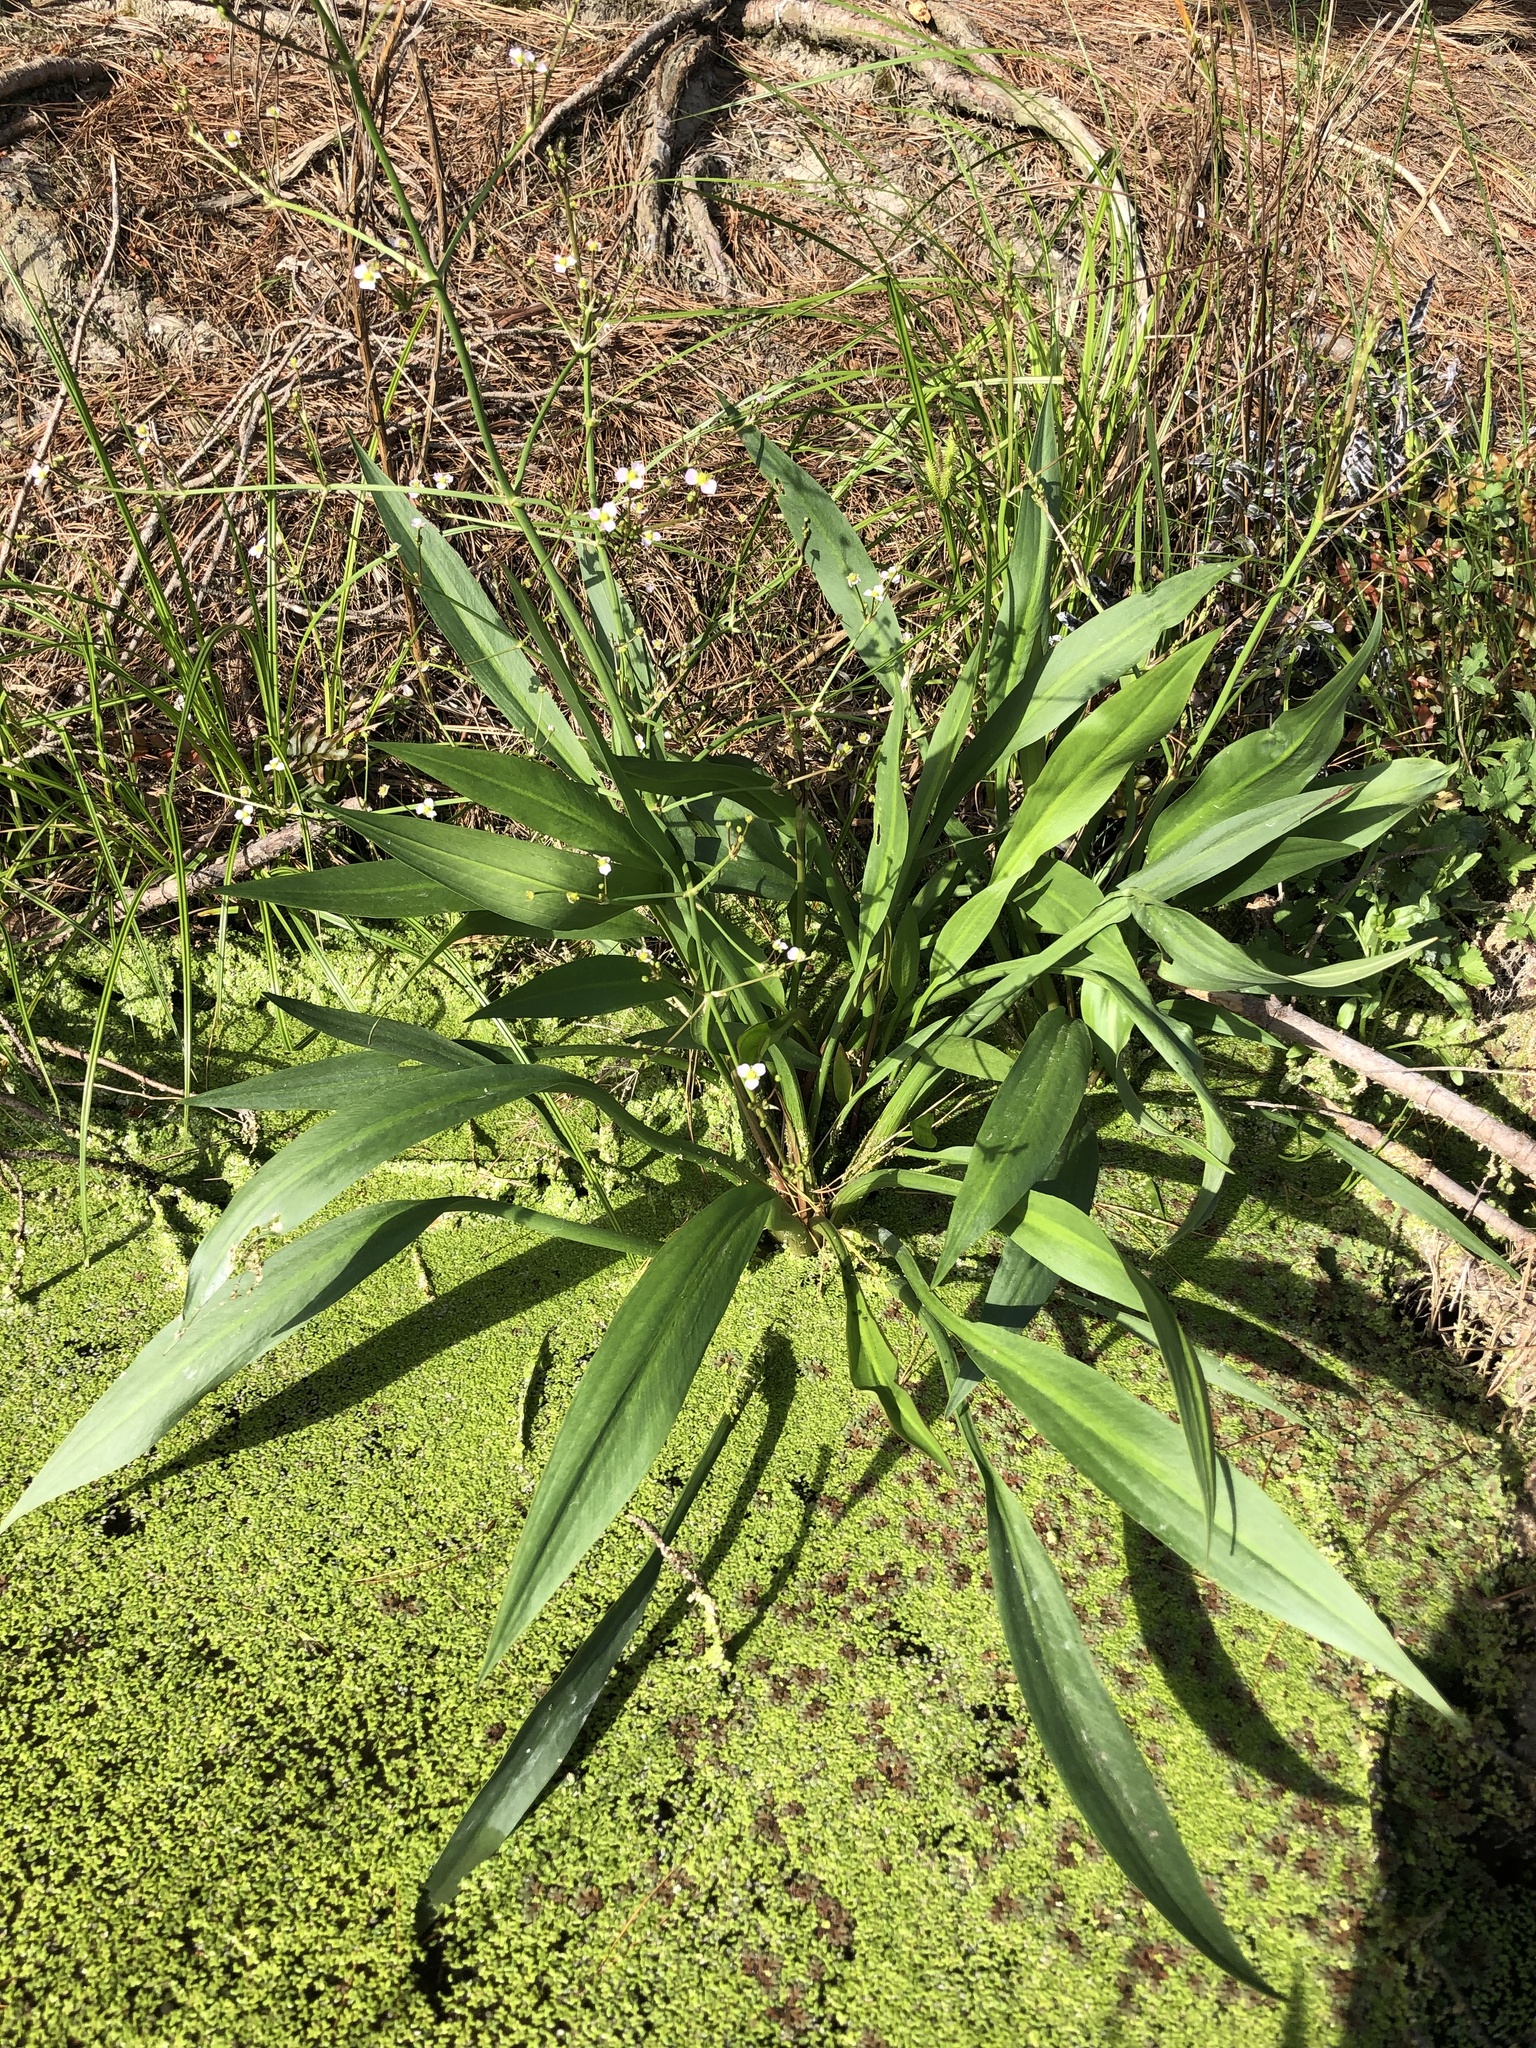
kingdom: Plantae
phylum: Tracheophyta
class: Liliopsida
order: Alismatales
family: Alismataceae
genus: Alisma
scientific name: Alisma plantago-aquatica
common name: Water-plantain
